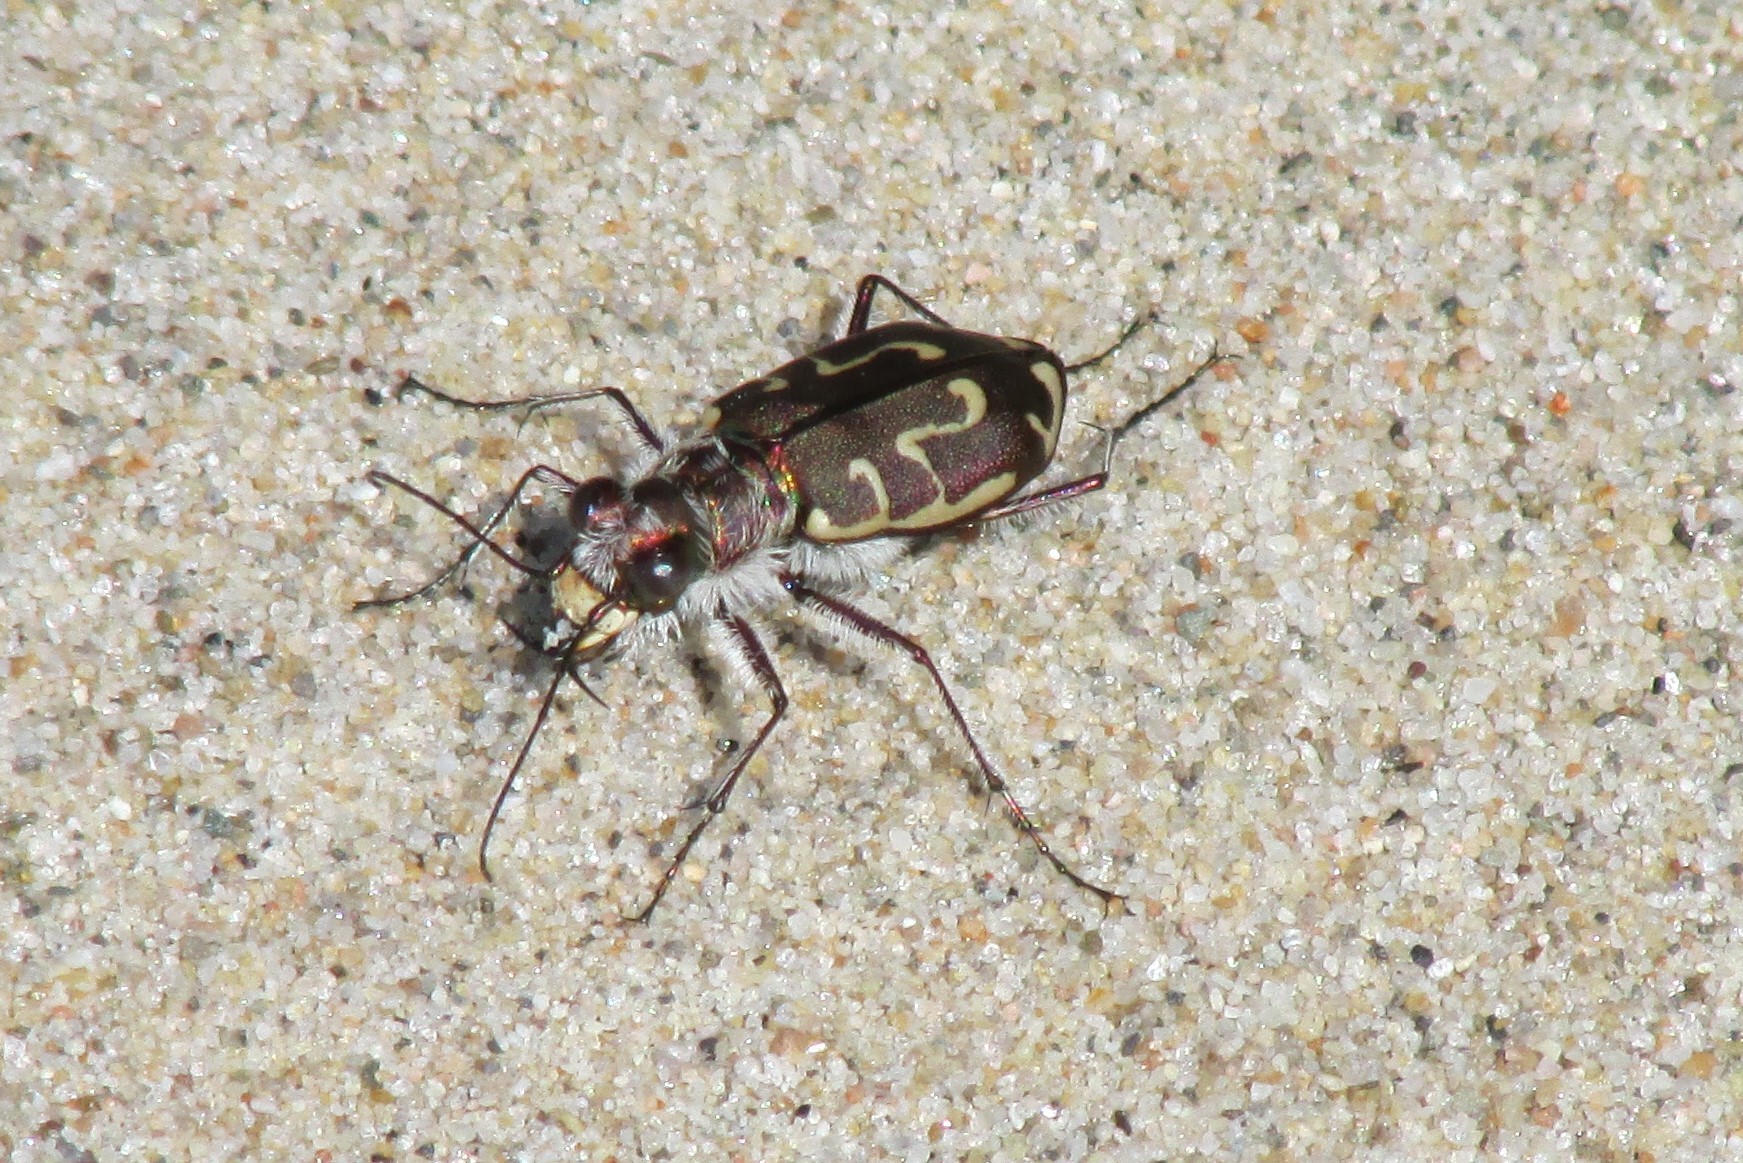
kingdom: Animalia
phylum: Arthropoda
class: Insecta
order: Coleoptera
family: Carabidae
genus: Cicindela
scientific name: Cicindela hirticollis
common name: Hairy-necked tiger beetle
